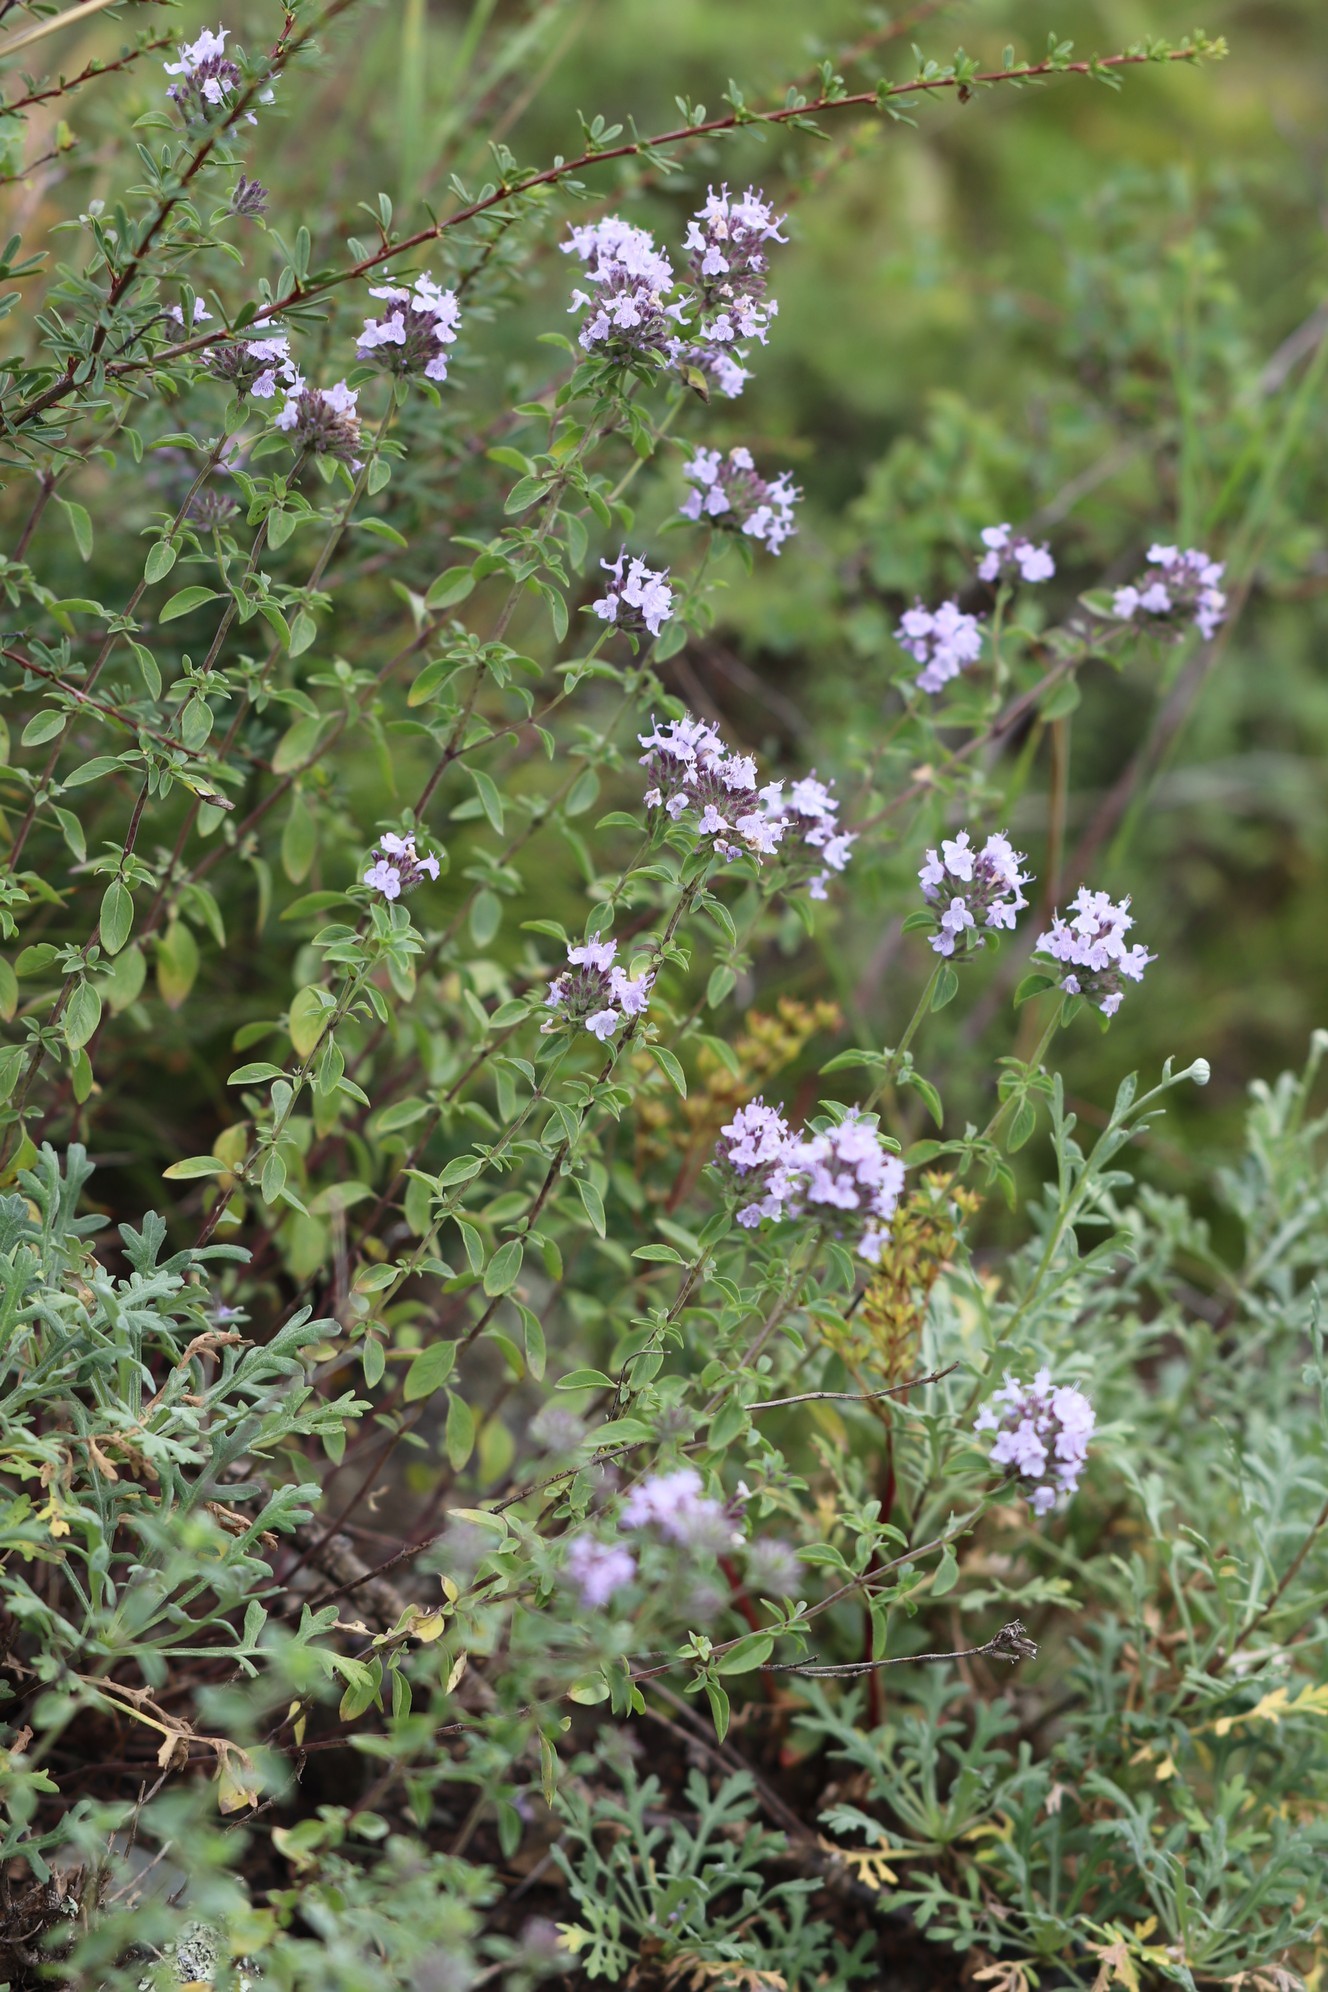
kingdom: Plantae
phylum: Tracheophyta
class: Magnoliopsida
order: Lamiales
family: Lamiaceae
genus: Ziziphora
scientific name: Ziziphora clinopodioides
